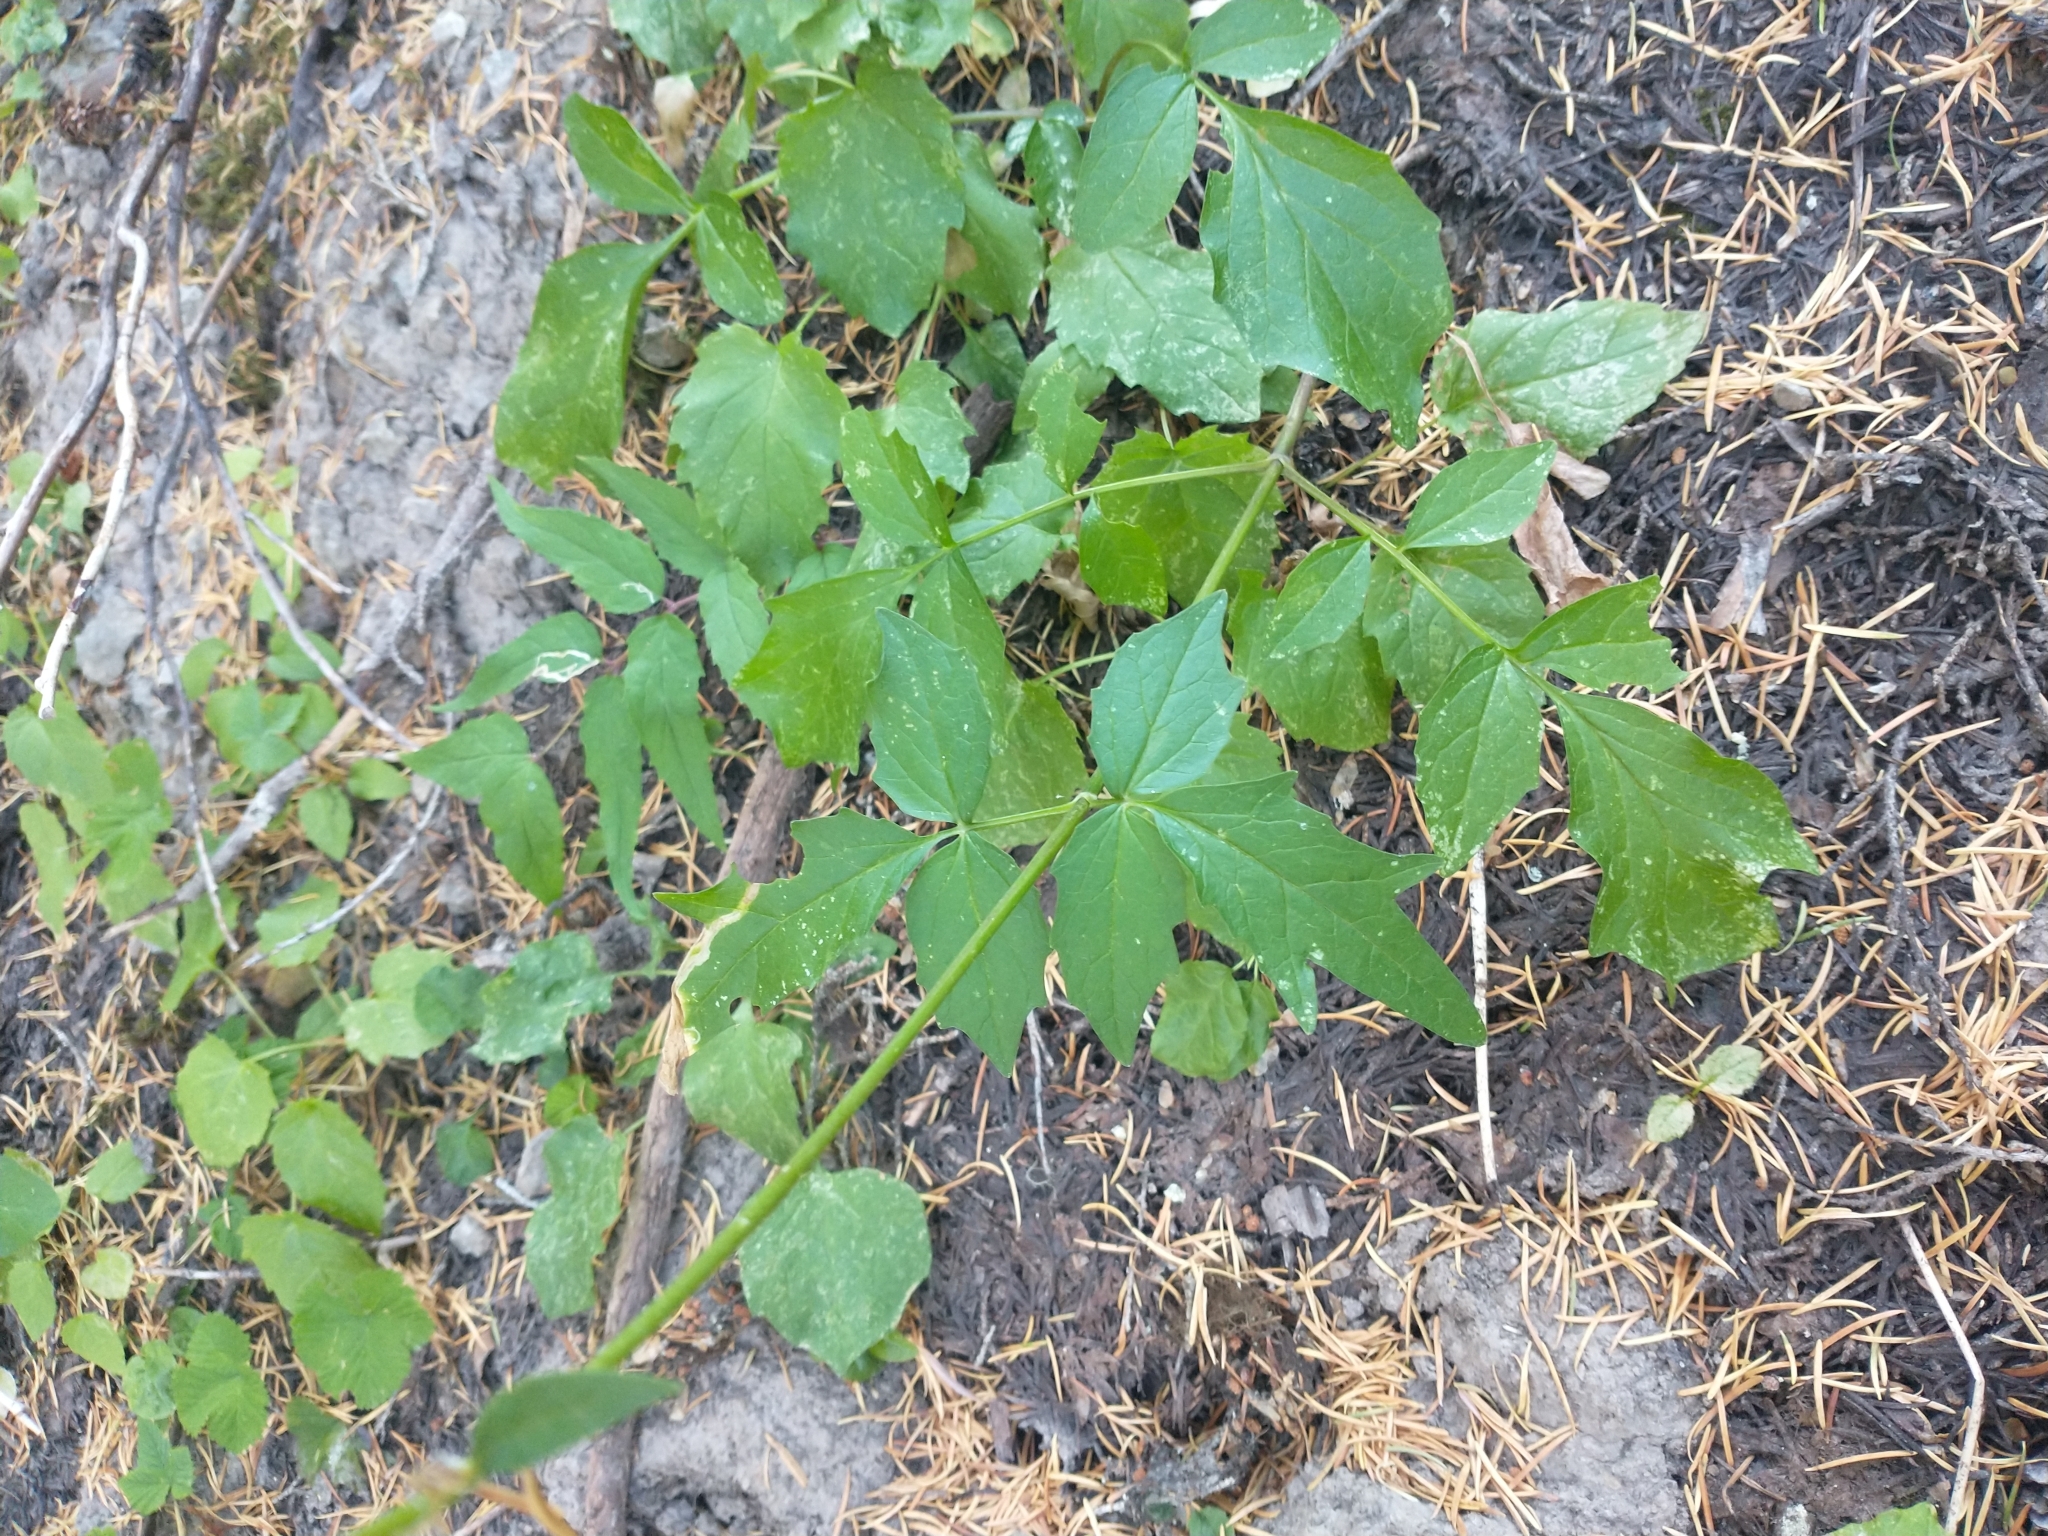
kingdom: Plantae
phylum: Tracheophyta
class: Magnoliopsida
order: Dipsacales
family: Caprifoliaceae
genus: Valeriana
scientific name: Valeriana sitchensis
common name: Pacific valerian
